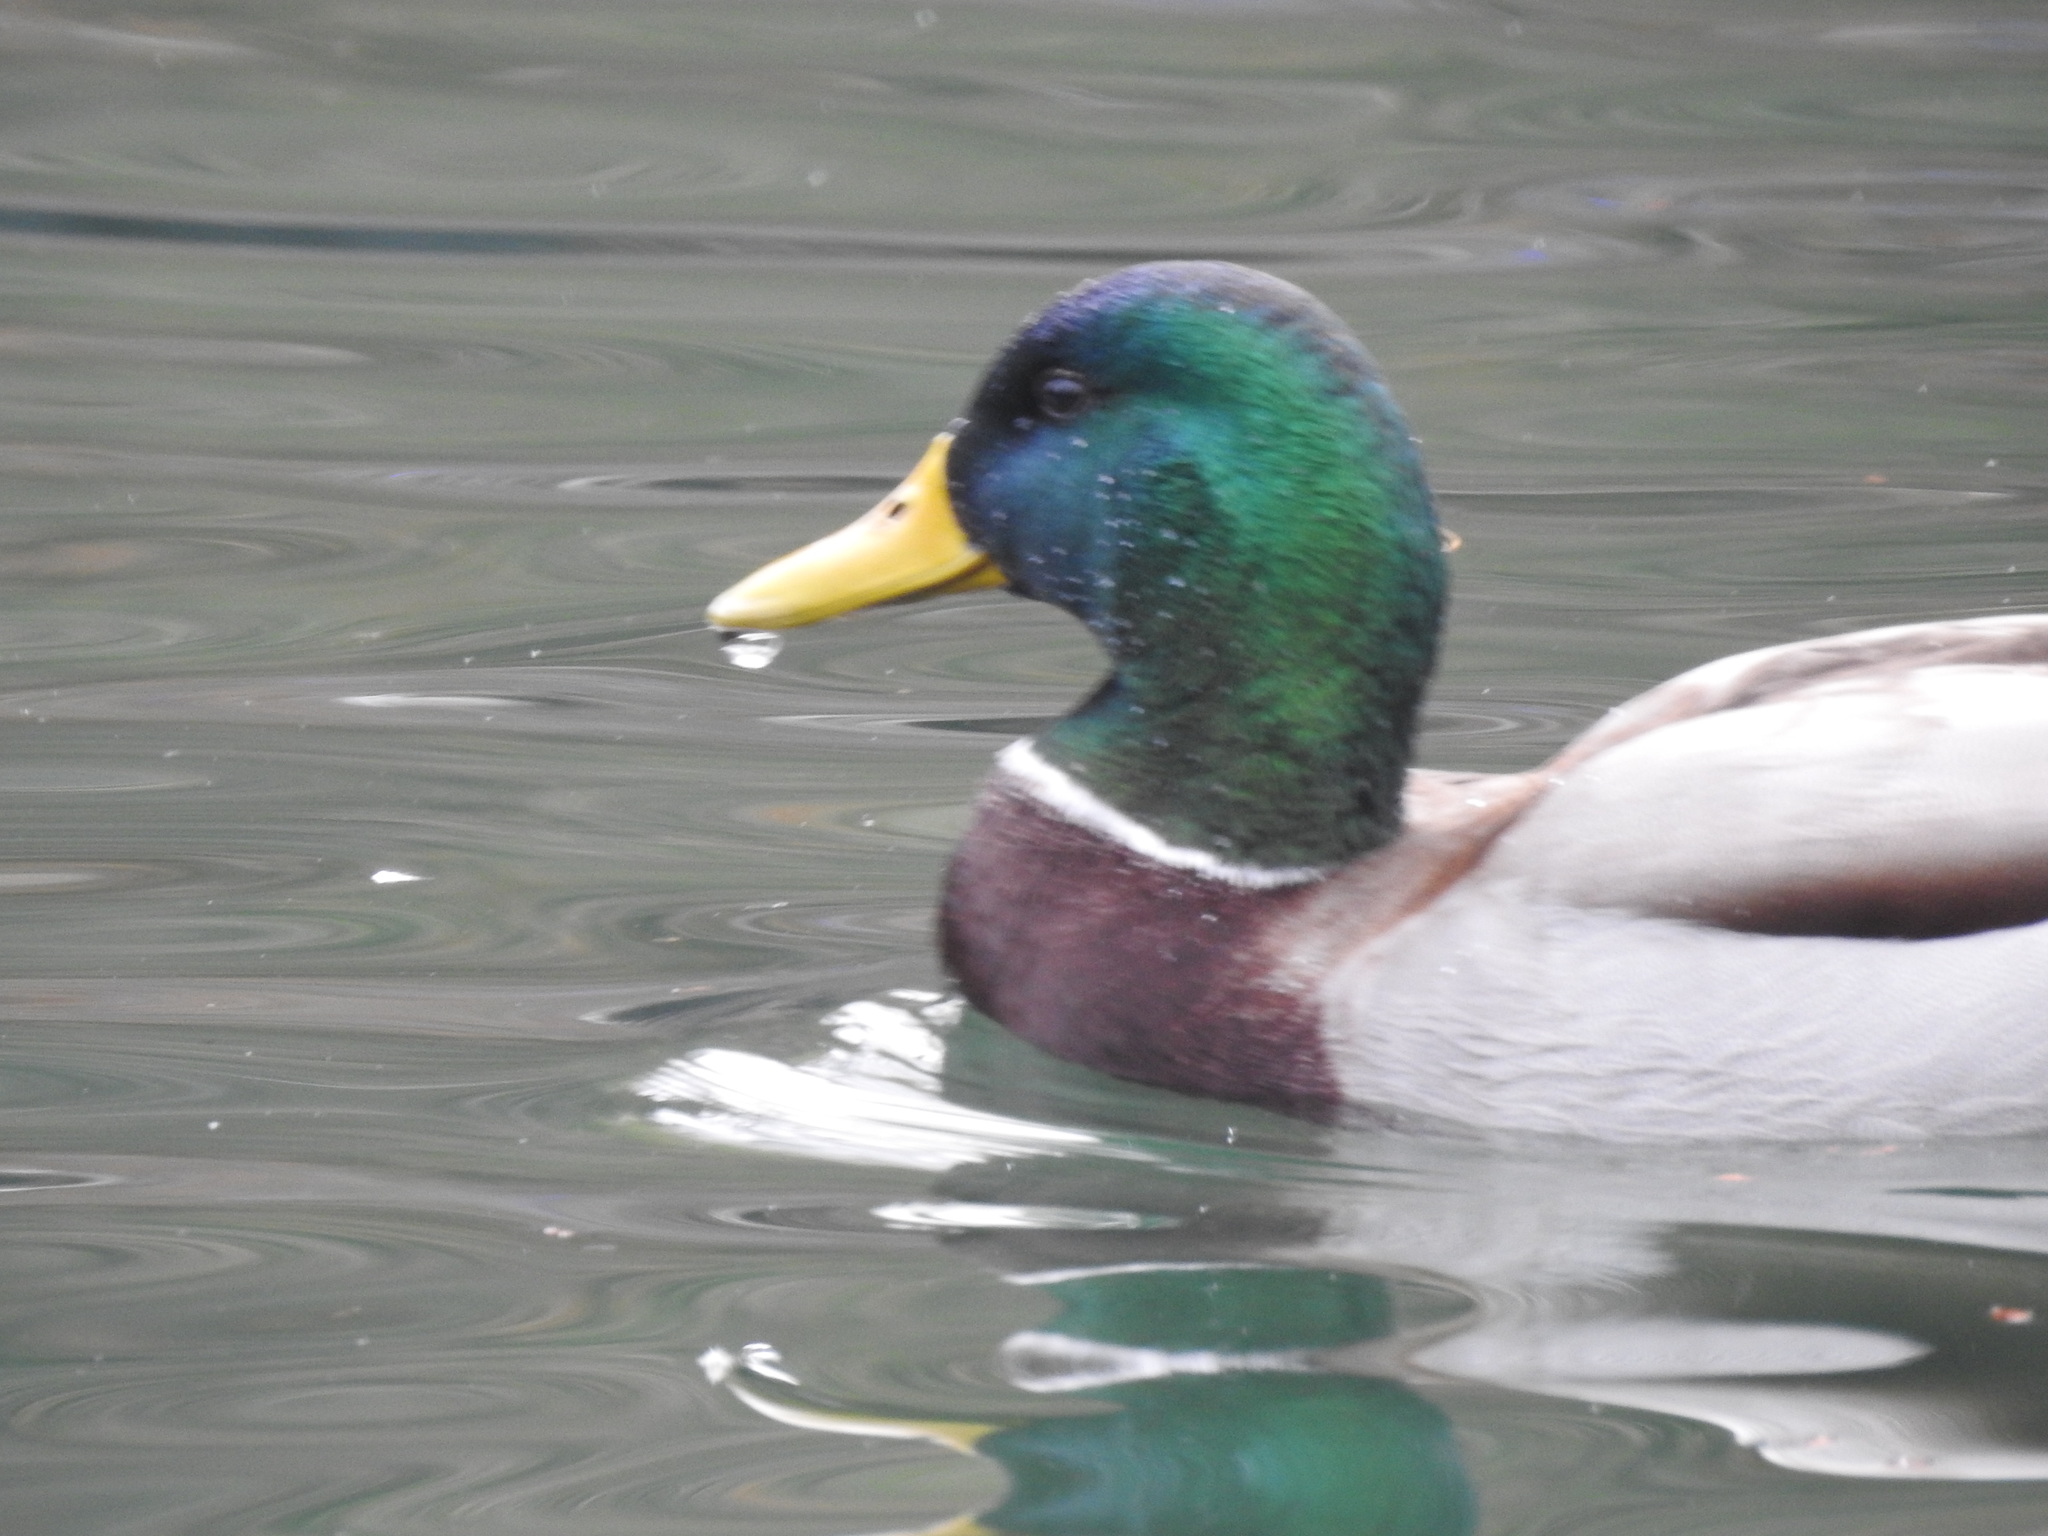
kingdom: Animalia
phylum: Chordata
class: Aves
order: Anseriformes
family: Anatidae
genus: Anas
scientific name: Anas platyrhynchos
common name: Mallard
